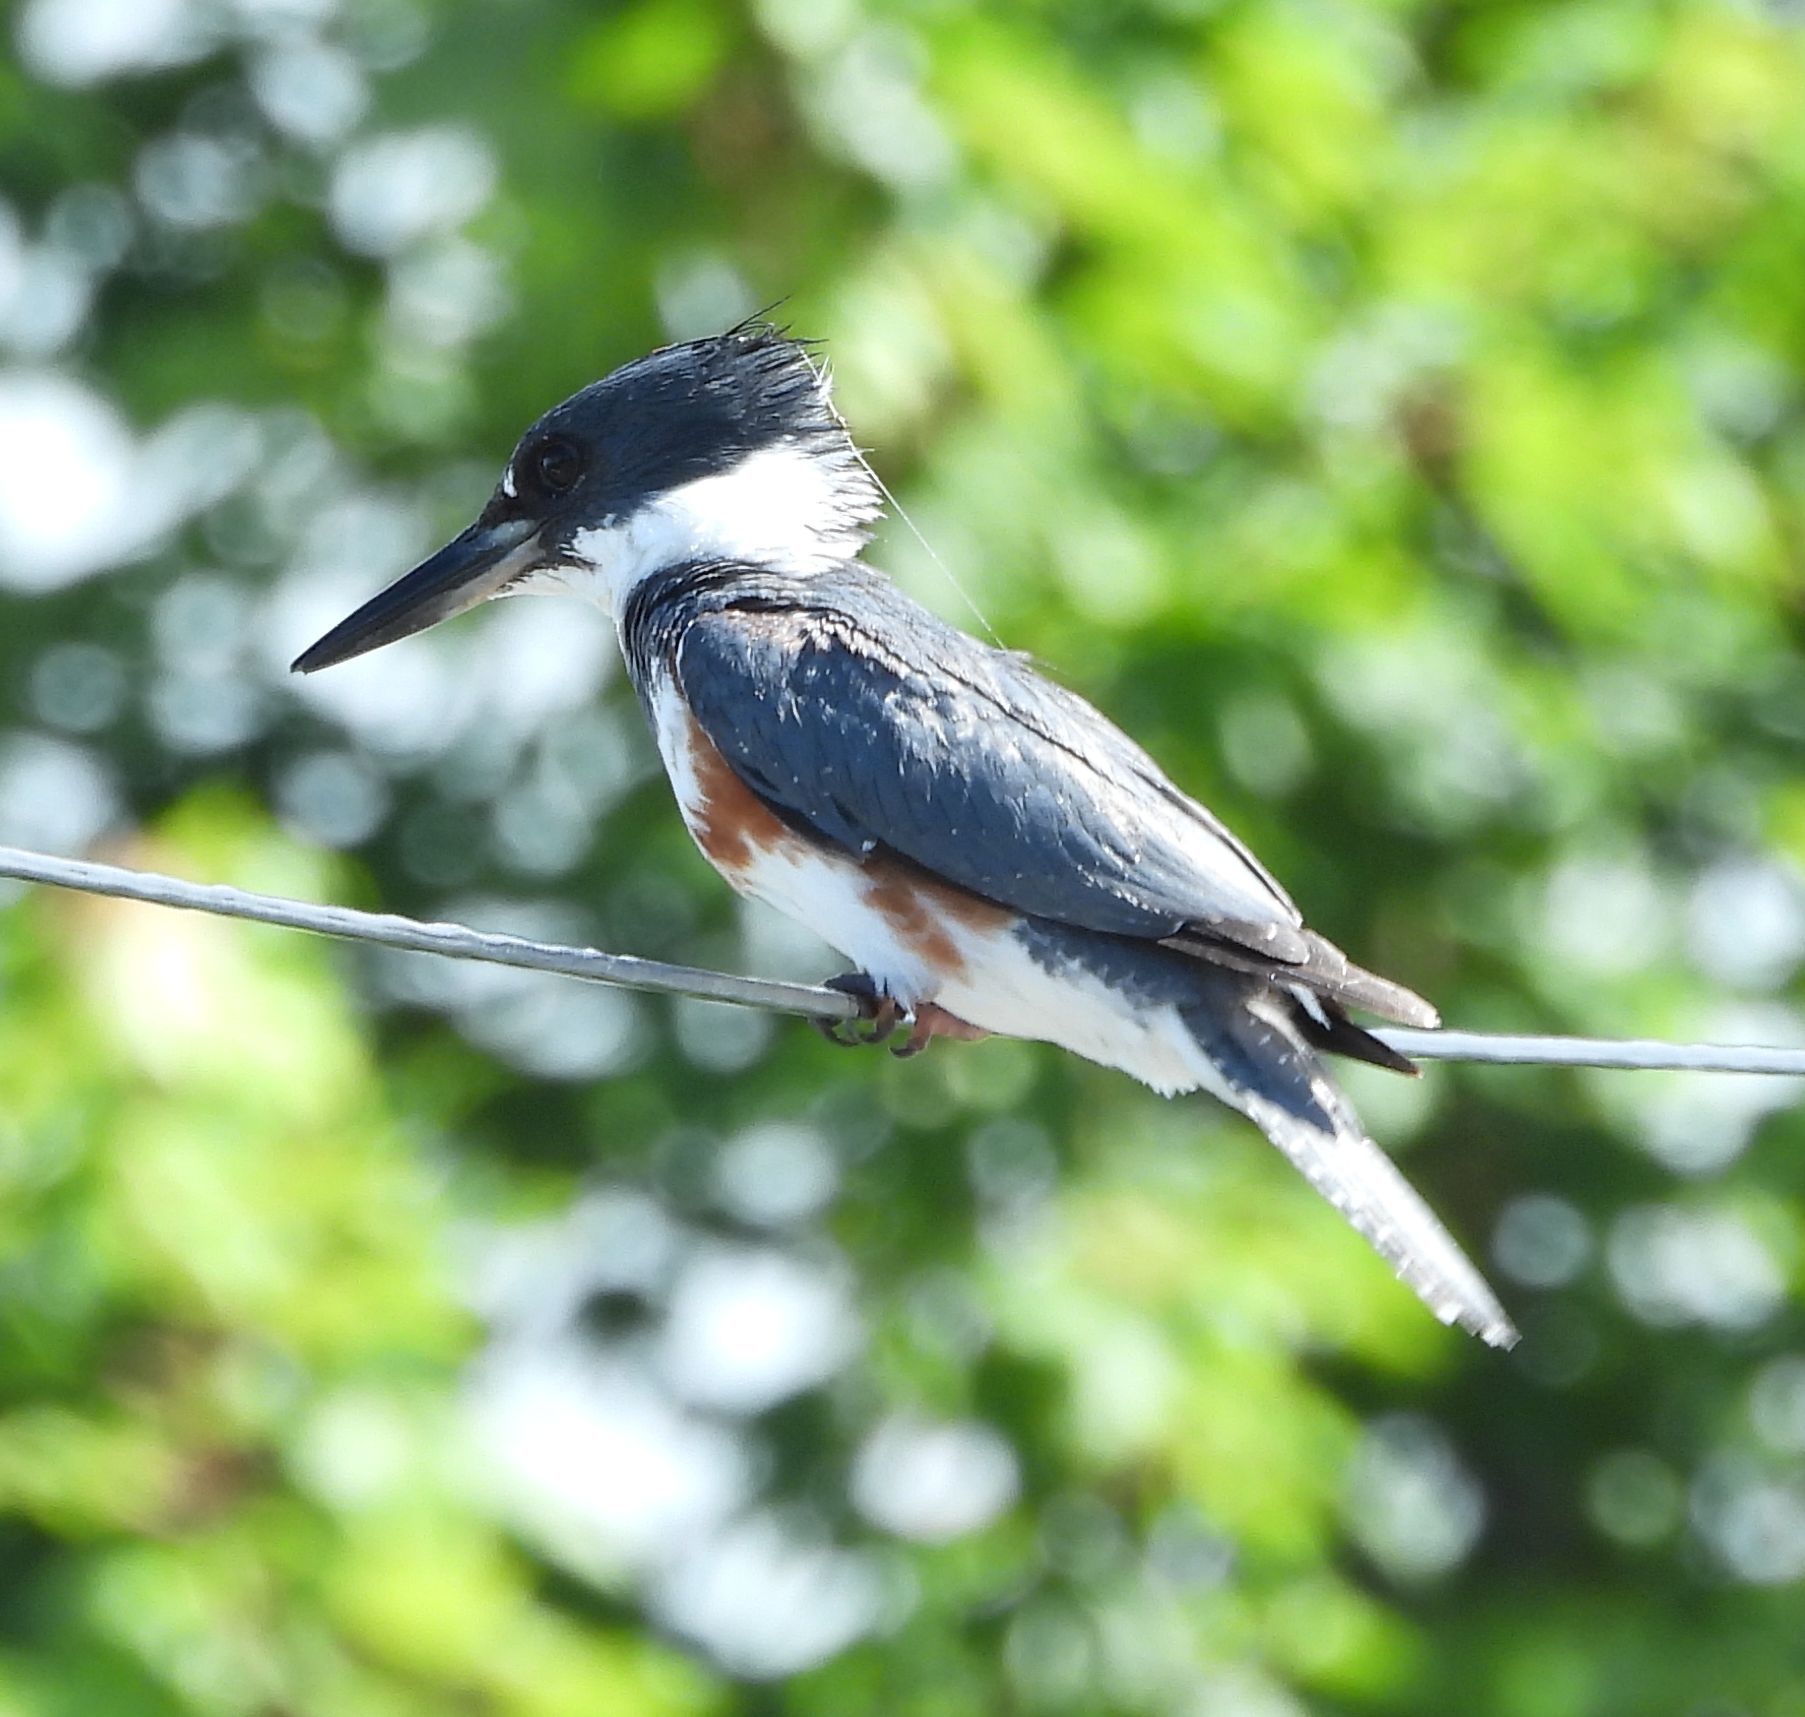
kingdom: Animalia
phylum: Chordata
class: Aves
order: Coraciiformes
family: Alcedinidae
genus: Megaceryle
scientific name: Megaceryle alcyon
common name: Belted kingfisher
